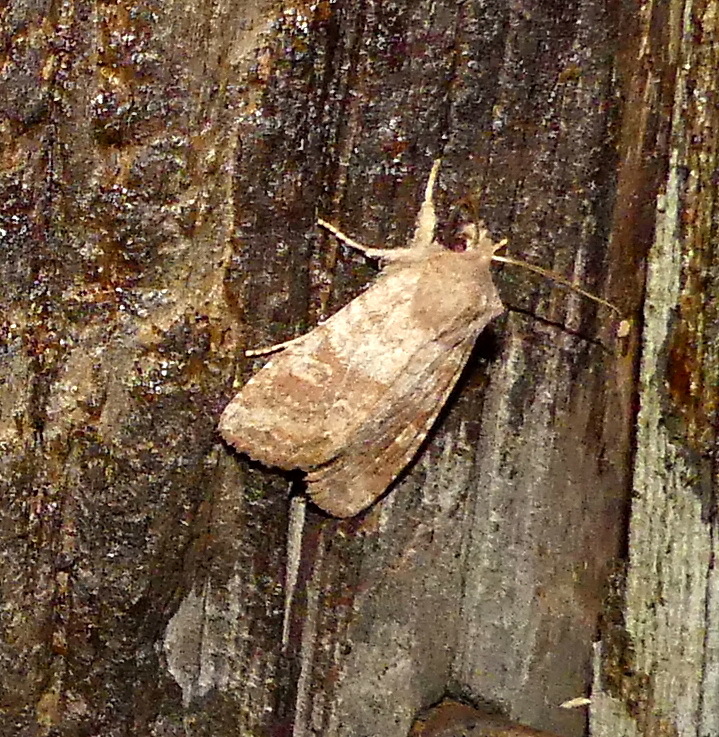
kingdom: Animalia
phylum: Arthropoda
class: Insecta
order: Lepidoptera
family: Noctuidae
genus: Lithophane
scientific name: Lithophane semiusta
